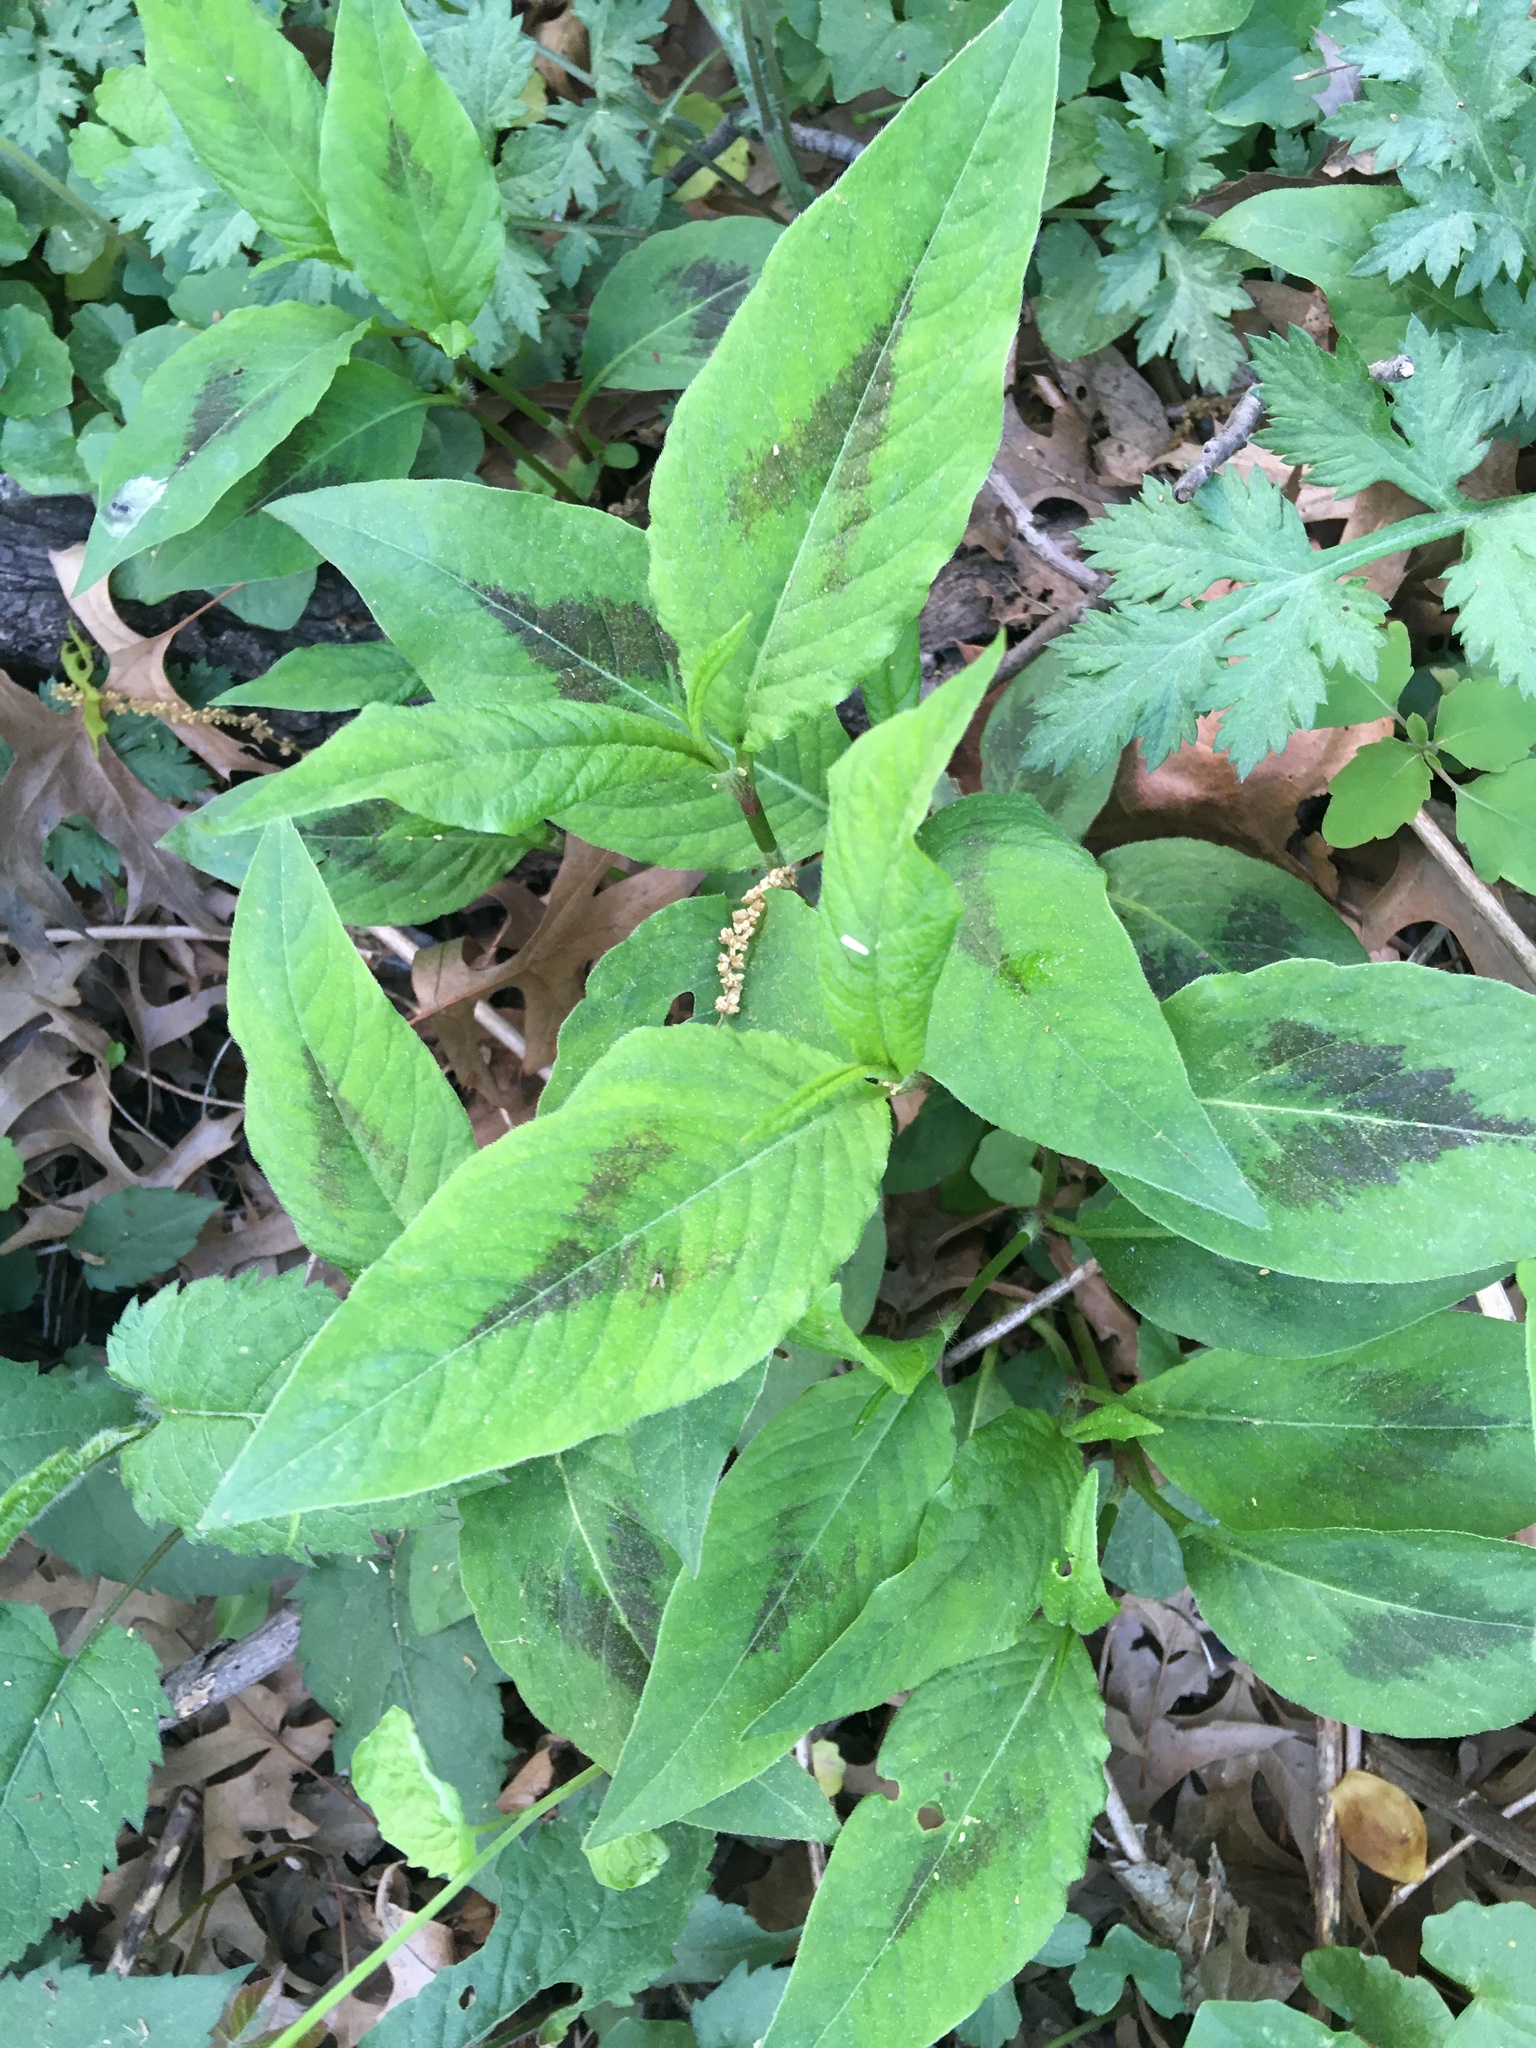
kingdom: Plantae
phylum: Tracheophyta
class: Magnoliopsida
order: Caryophyllales
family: Polygonaceae
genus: Persicaria
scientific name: Persicaria virginiana
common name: Jumpseed
